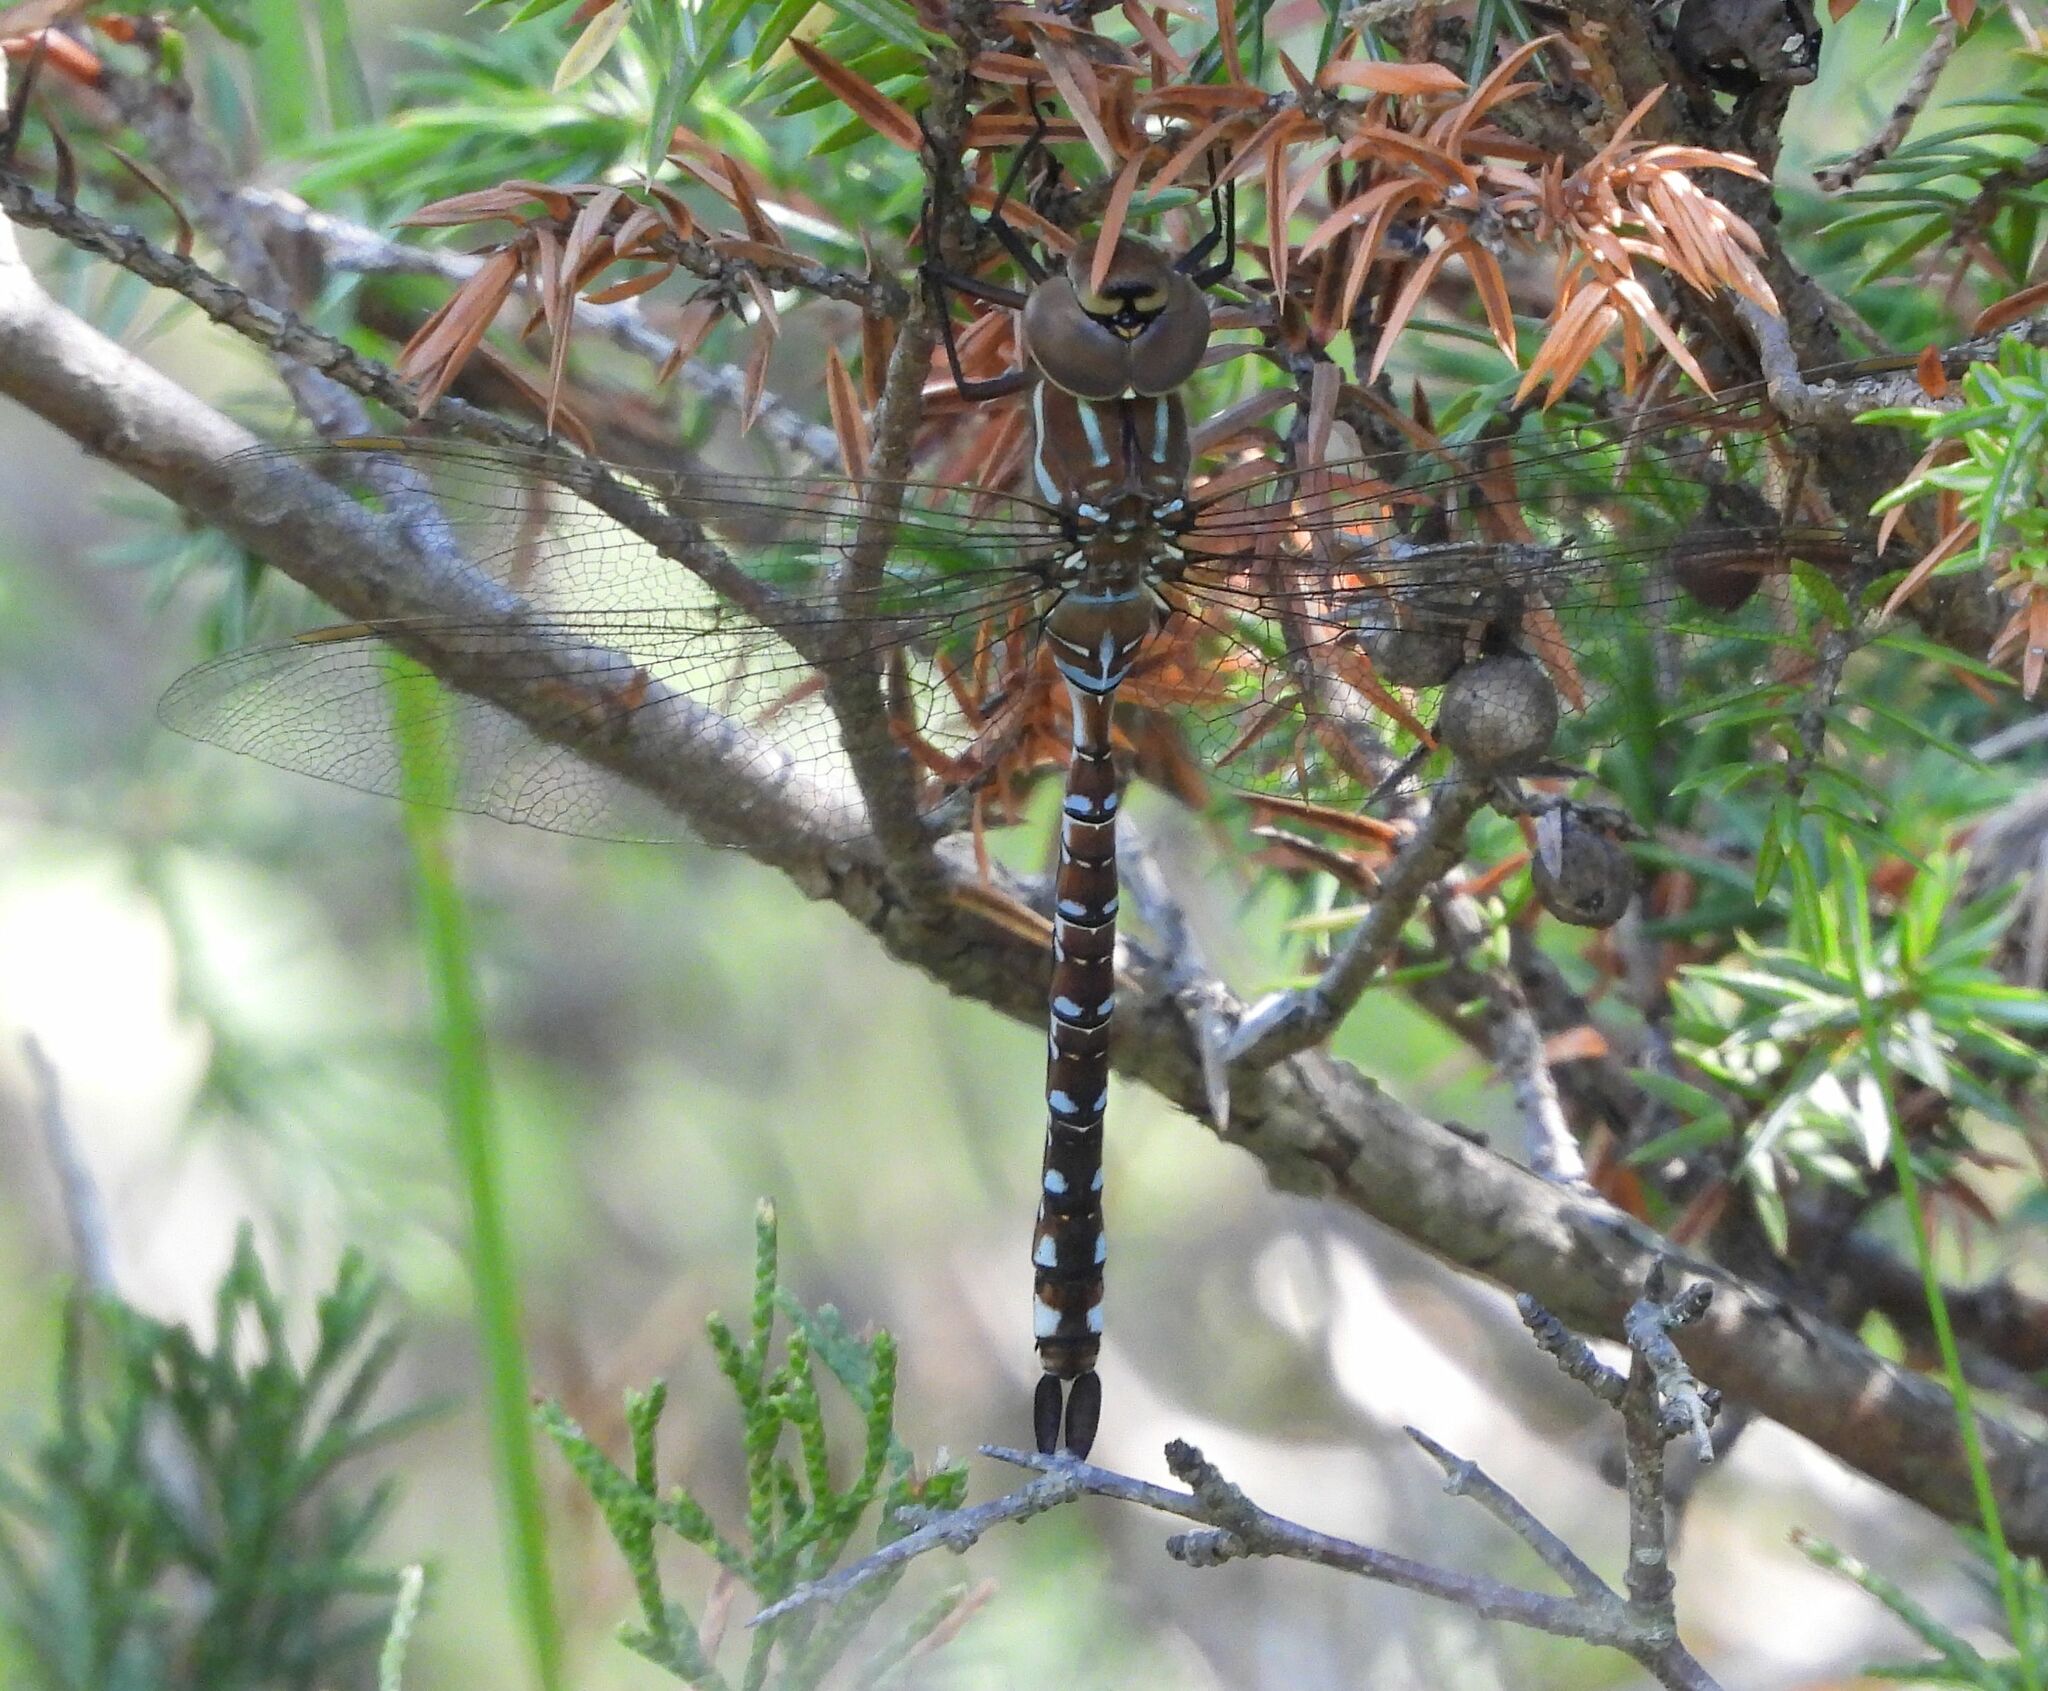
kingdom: Animalia
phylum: Arthropoda
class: Insecta
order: Odonata
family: Aeshnidae
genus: Aeshna
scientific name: Aeshna constricta
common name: Lance-tipped darner
